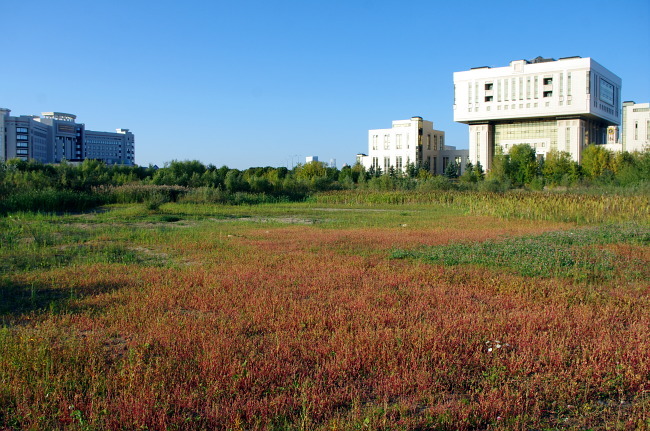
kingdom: Plantae
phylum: Tracheophyta
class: Magnoliopsida
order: Caryophyllales
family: Amaranthaceae
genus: Oxybasis
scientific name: Oxybasis glauca
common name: Glaucous goosefoot
